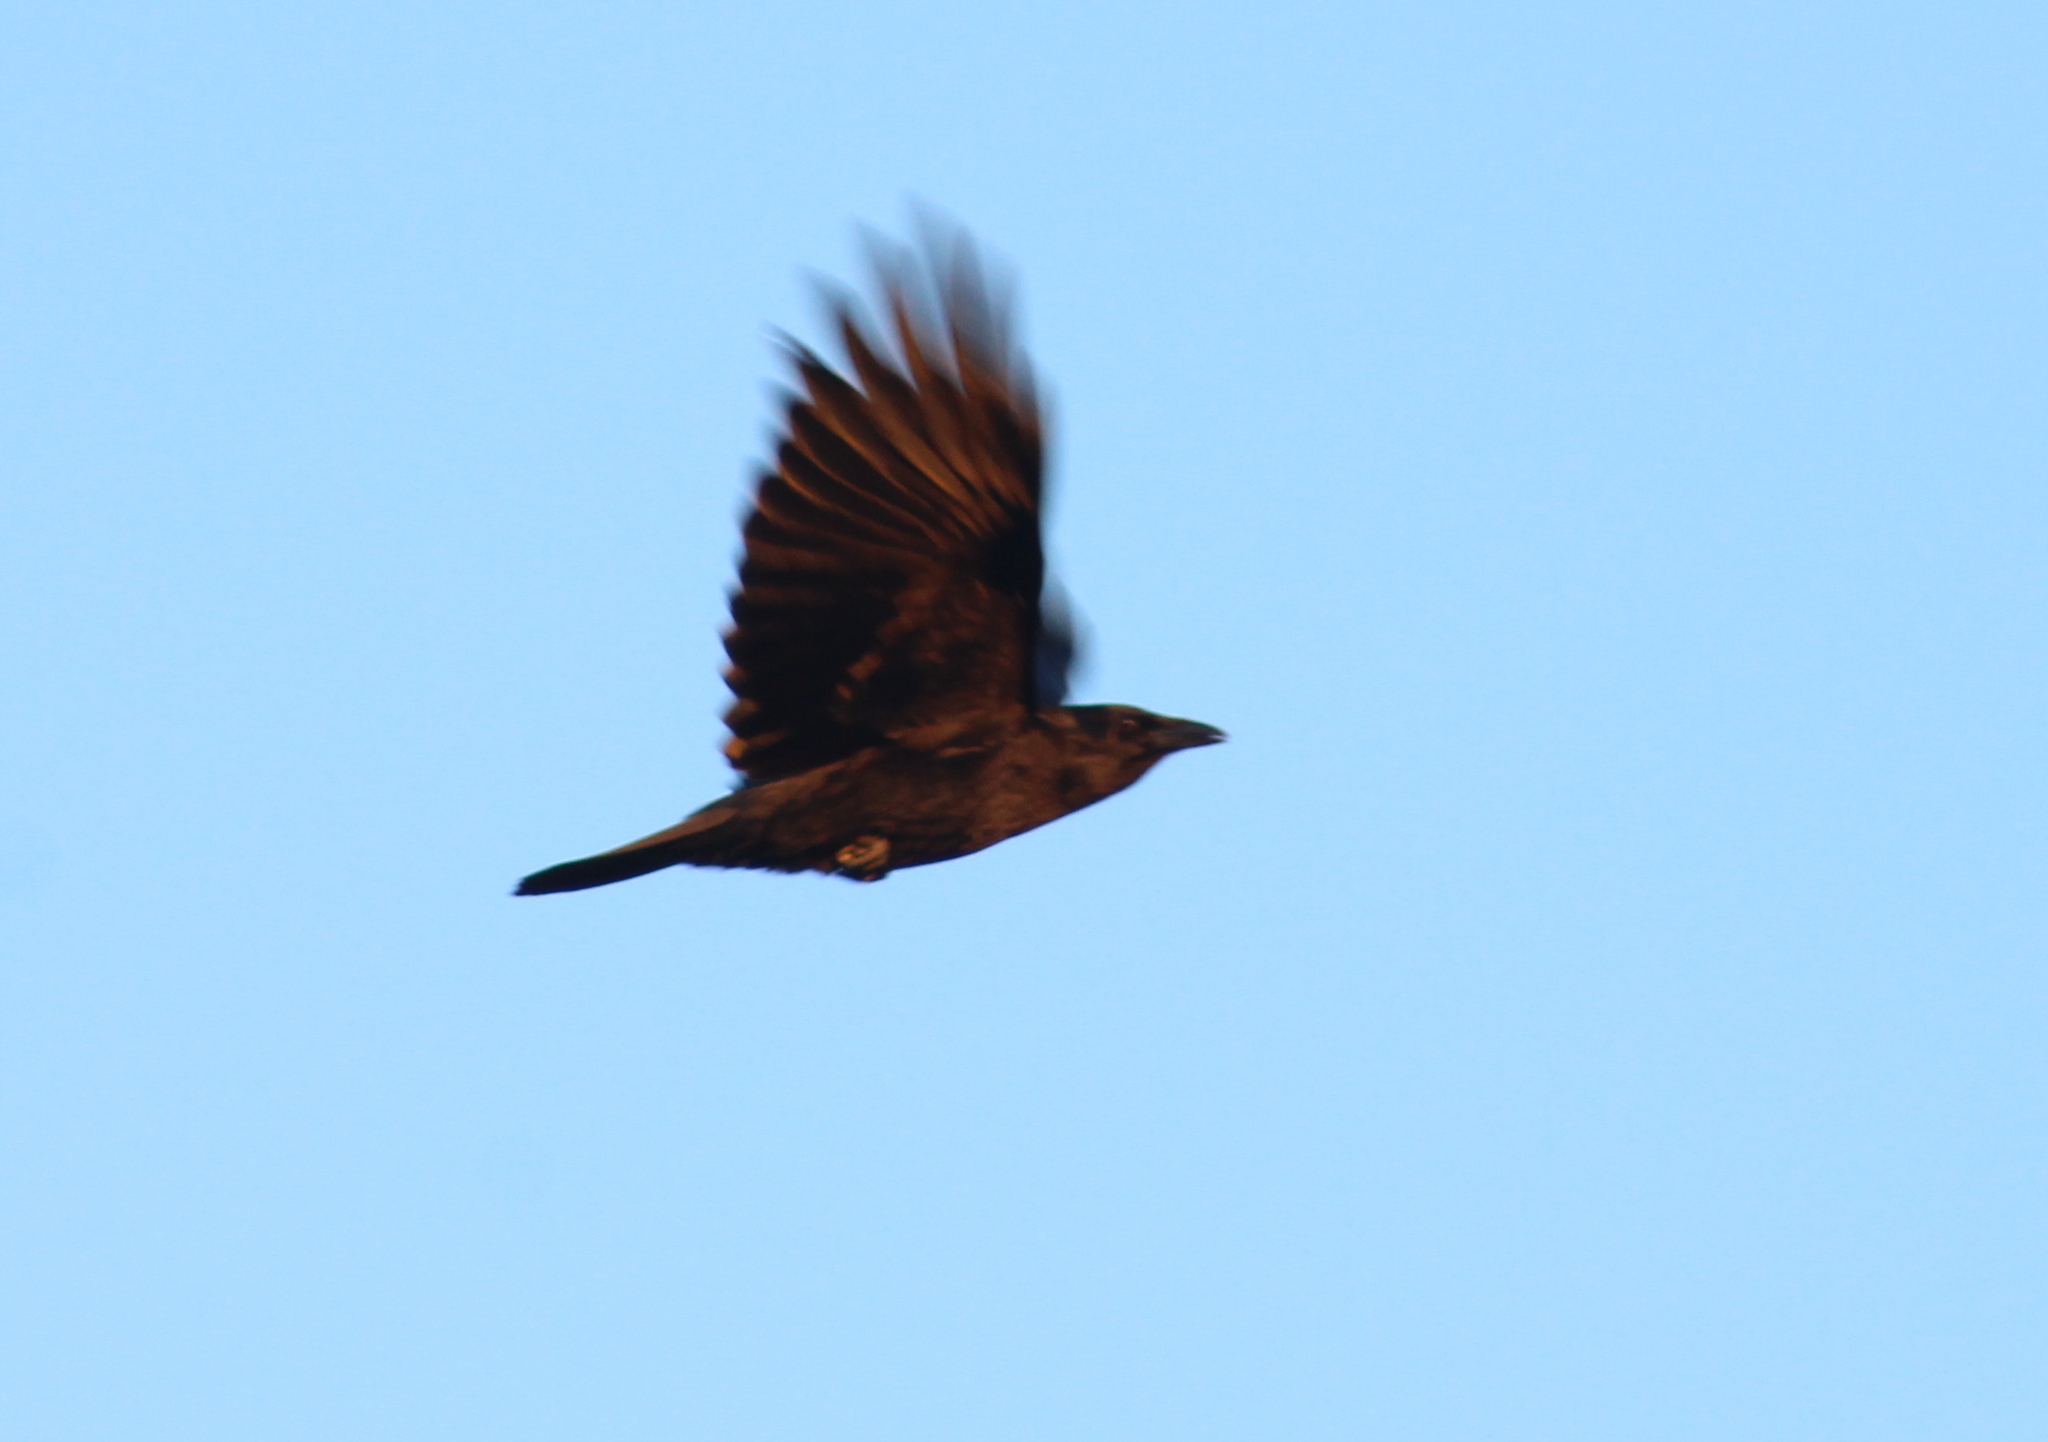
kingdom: Animalia
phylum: Chordata
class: Aves
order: Passeriformes
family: Corvidae
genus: Corvus
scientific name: Corvus brachyrhynchos
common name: American crow
